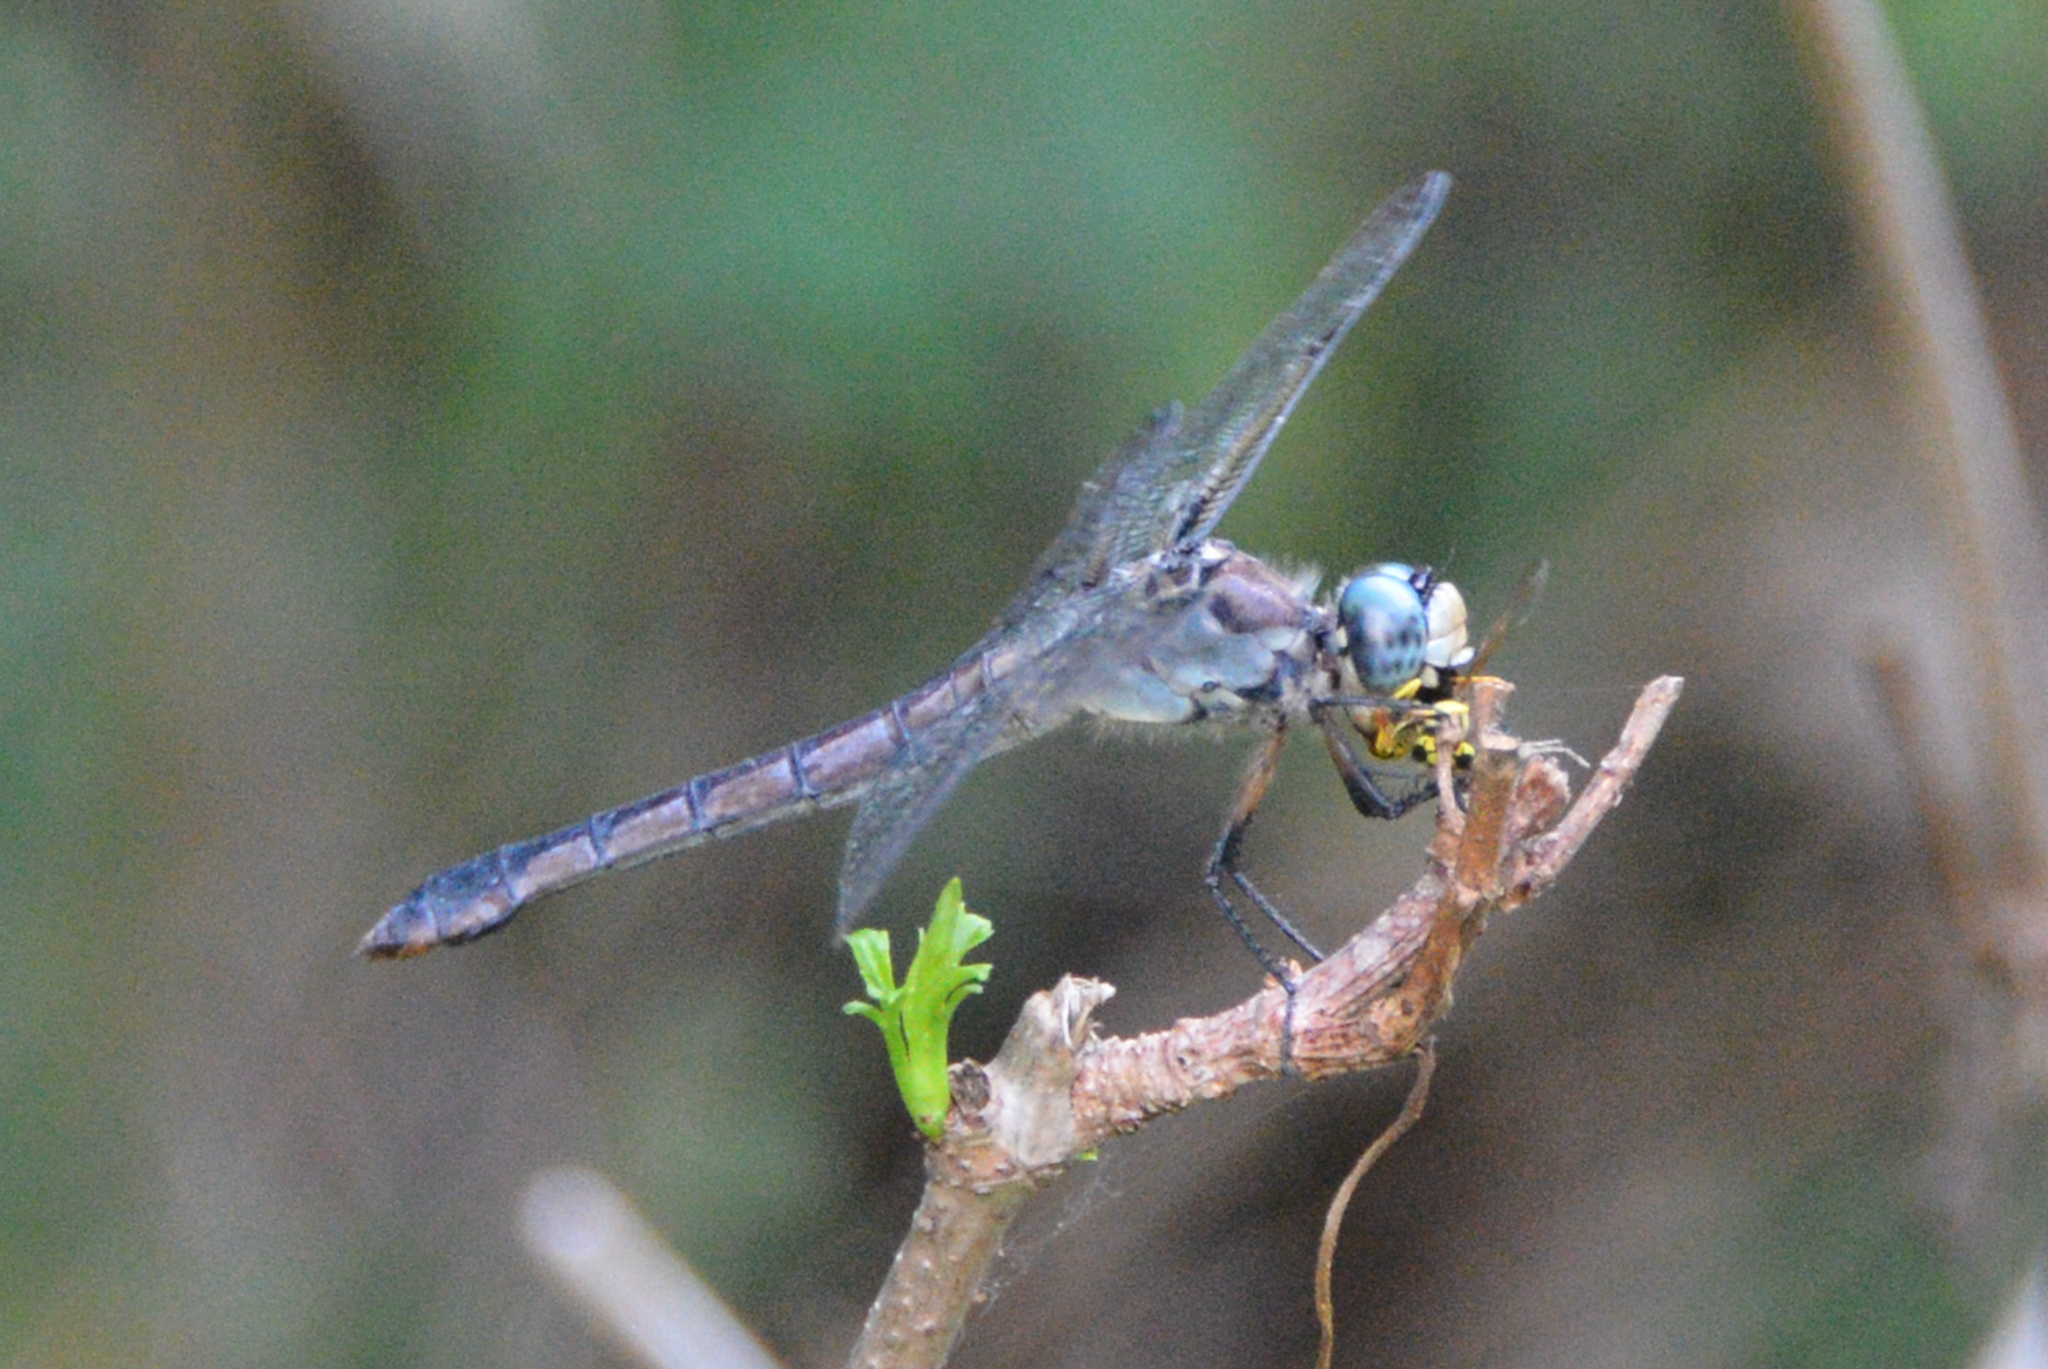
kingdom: Animalia
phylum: Arthropoda
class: Insecta
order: Odonata
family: Libellulidae
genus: Libellula
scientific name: Libellula vibrans
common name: Great blue skimmer
